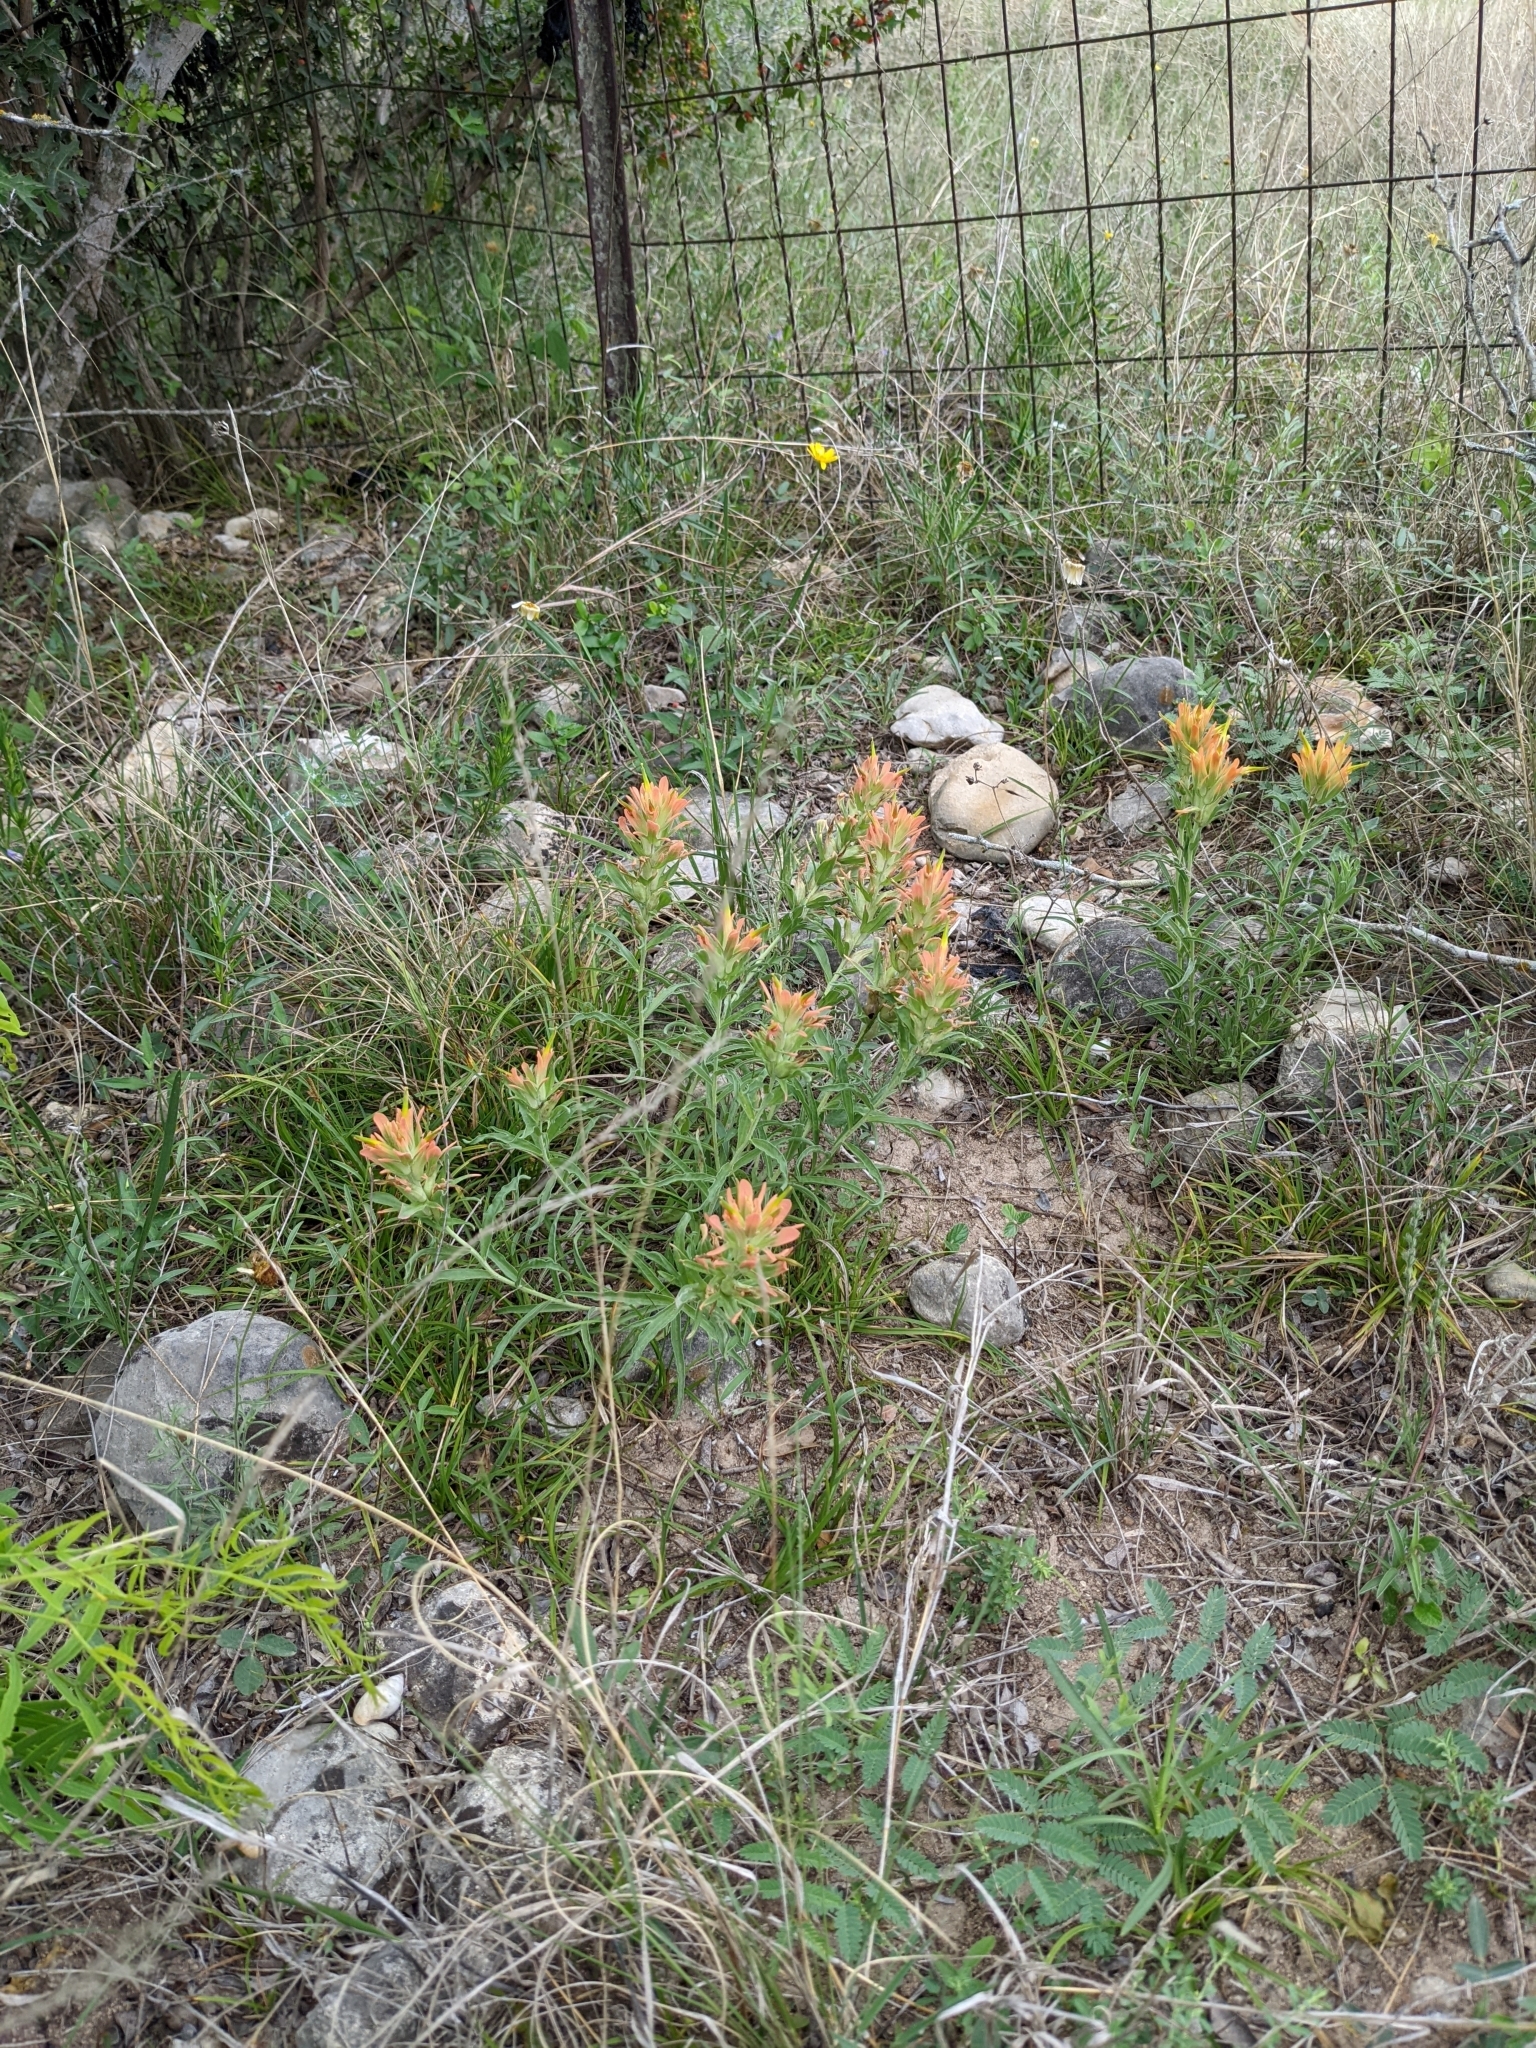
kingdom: Plantae
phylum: Tracheophyta
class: Magnoliopsida
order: Lamiales
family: Orobanchaceae
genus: Castilleja
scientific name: Castilleja lindheimeri
